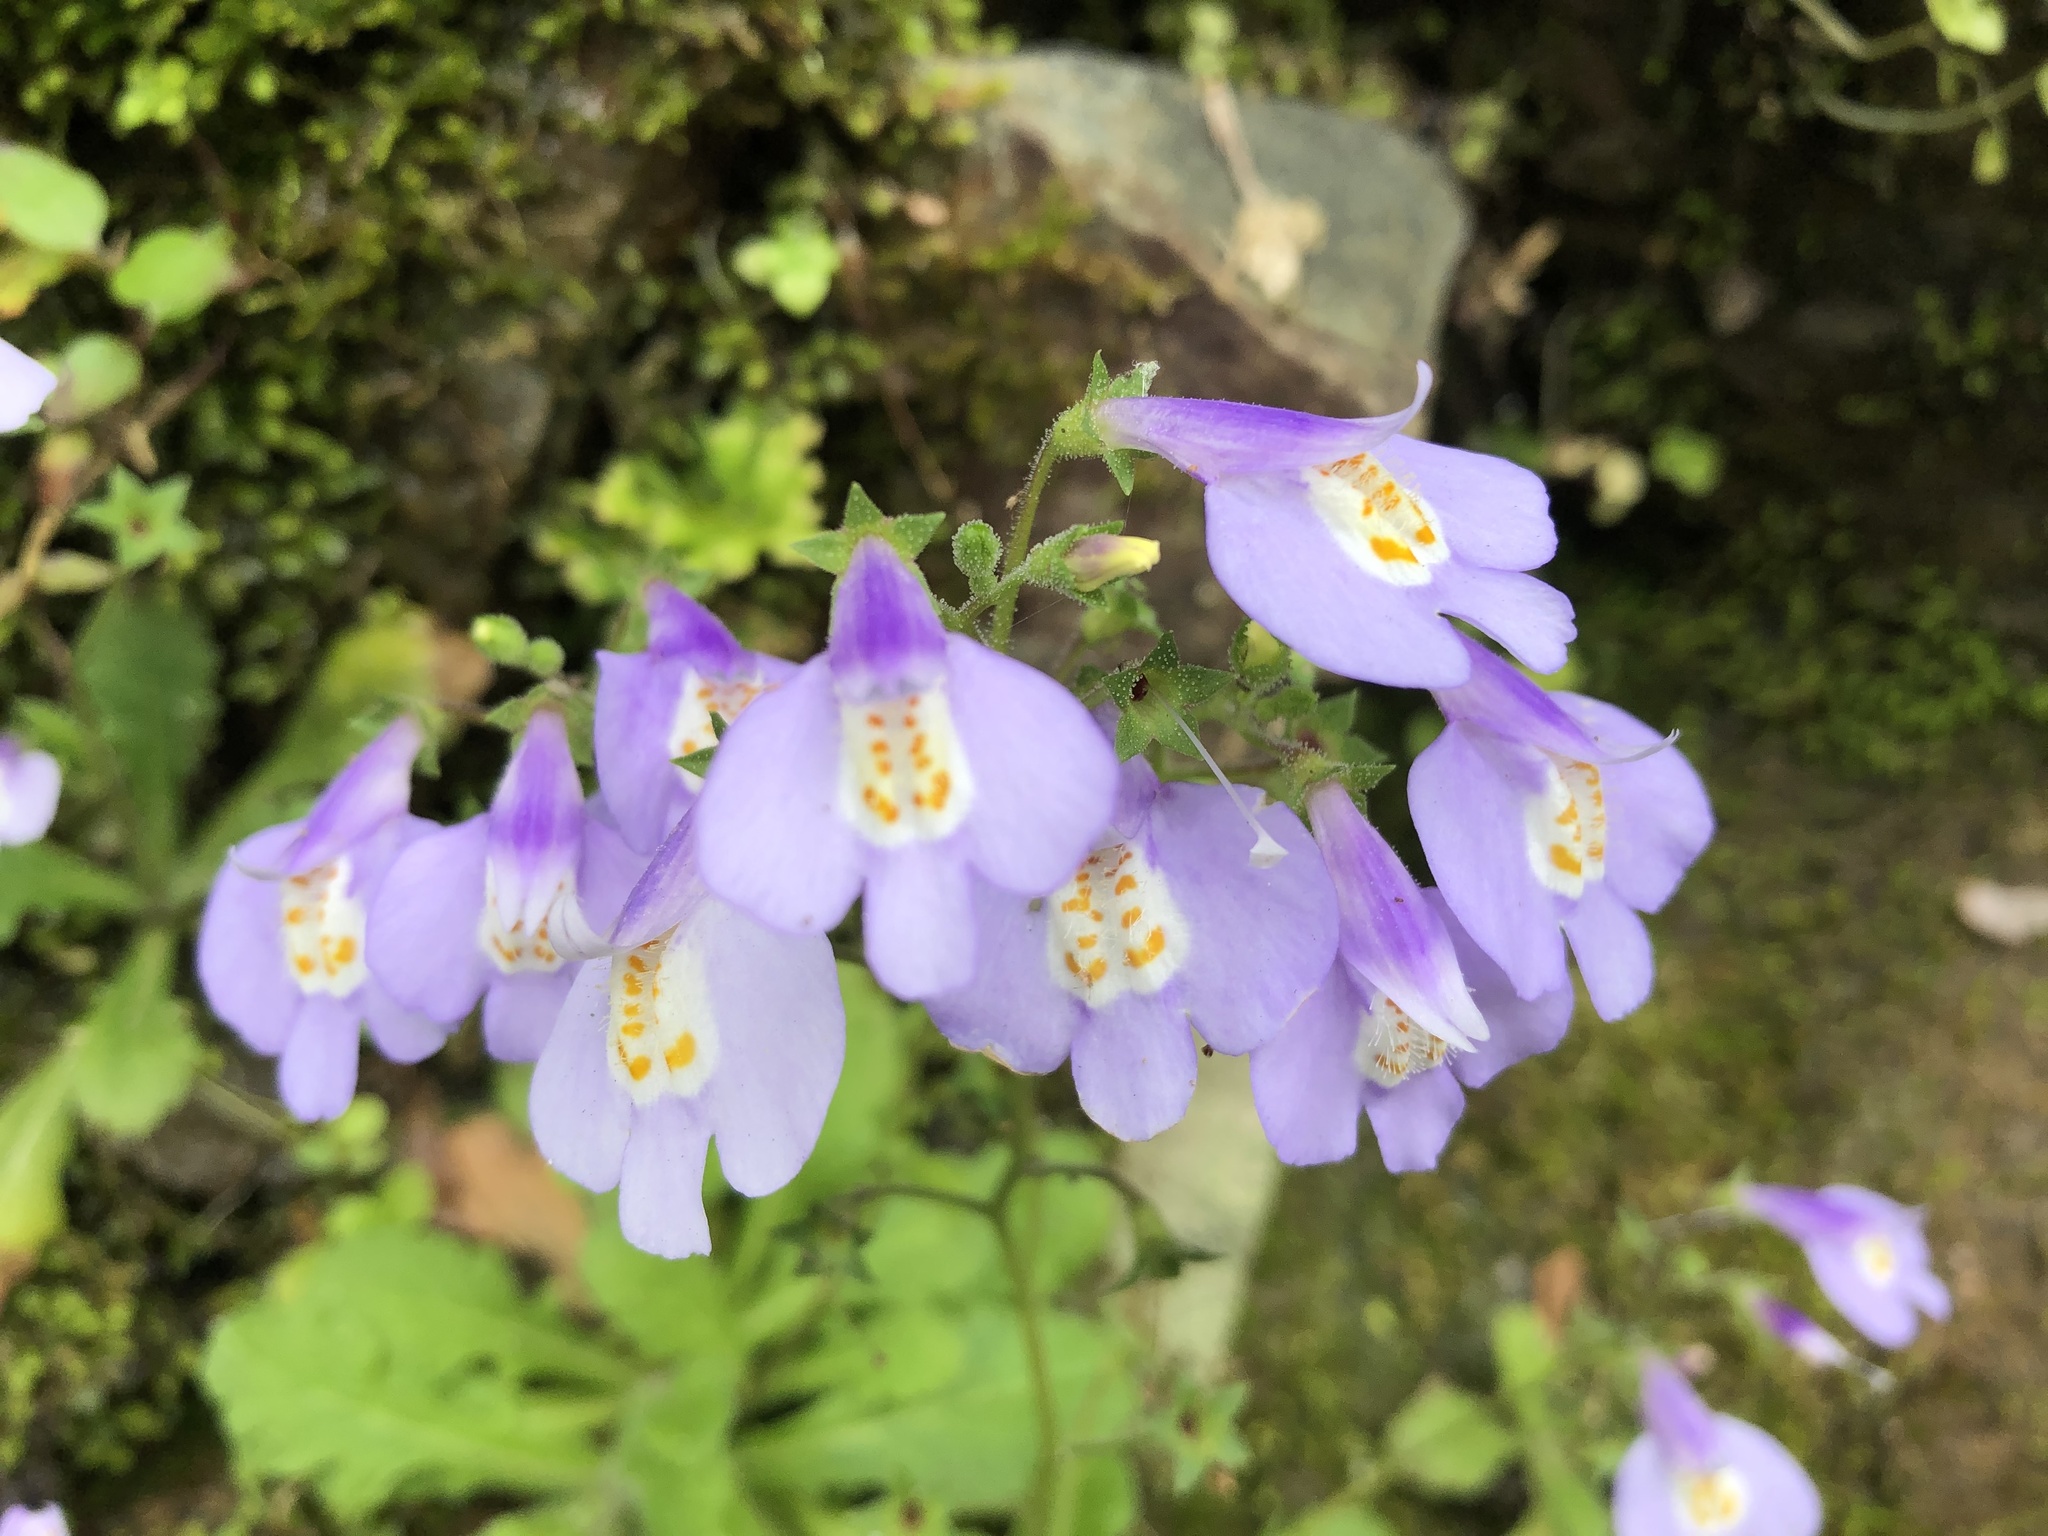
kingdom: Plantae
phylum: Tracheophyta
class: Magnoliopsida
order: Lamiales
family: Mazaceae
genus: Mazus
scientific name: Mazus fauriei
